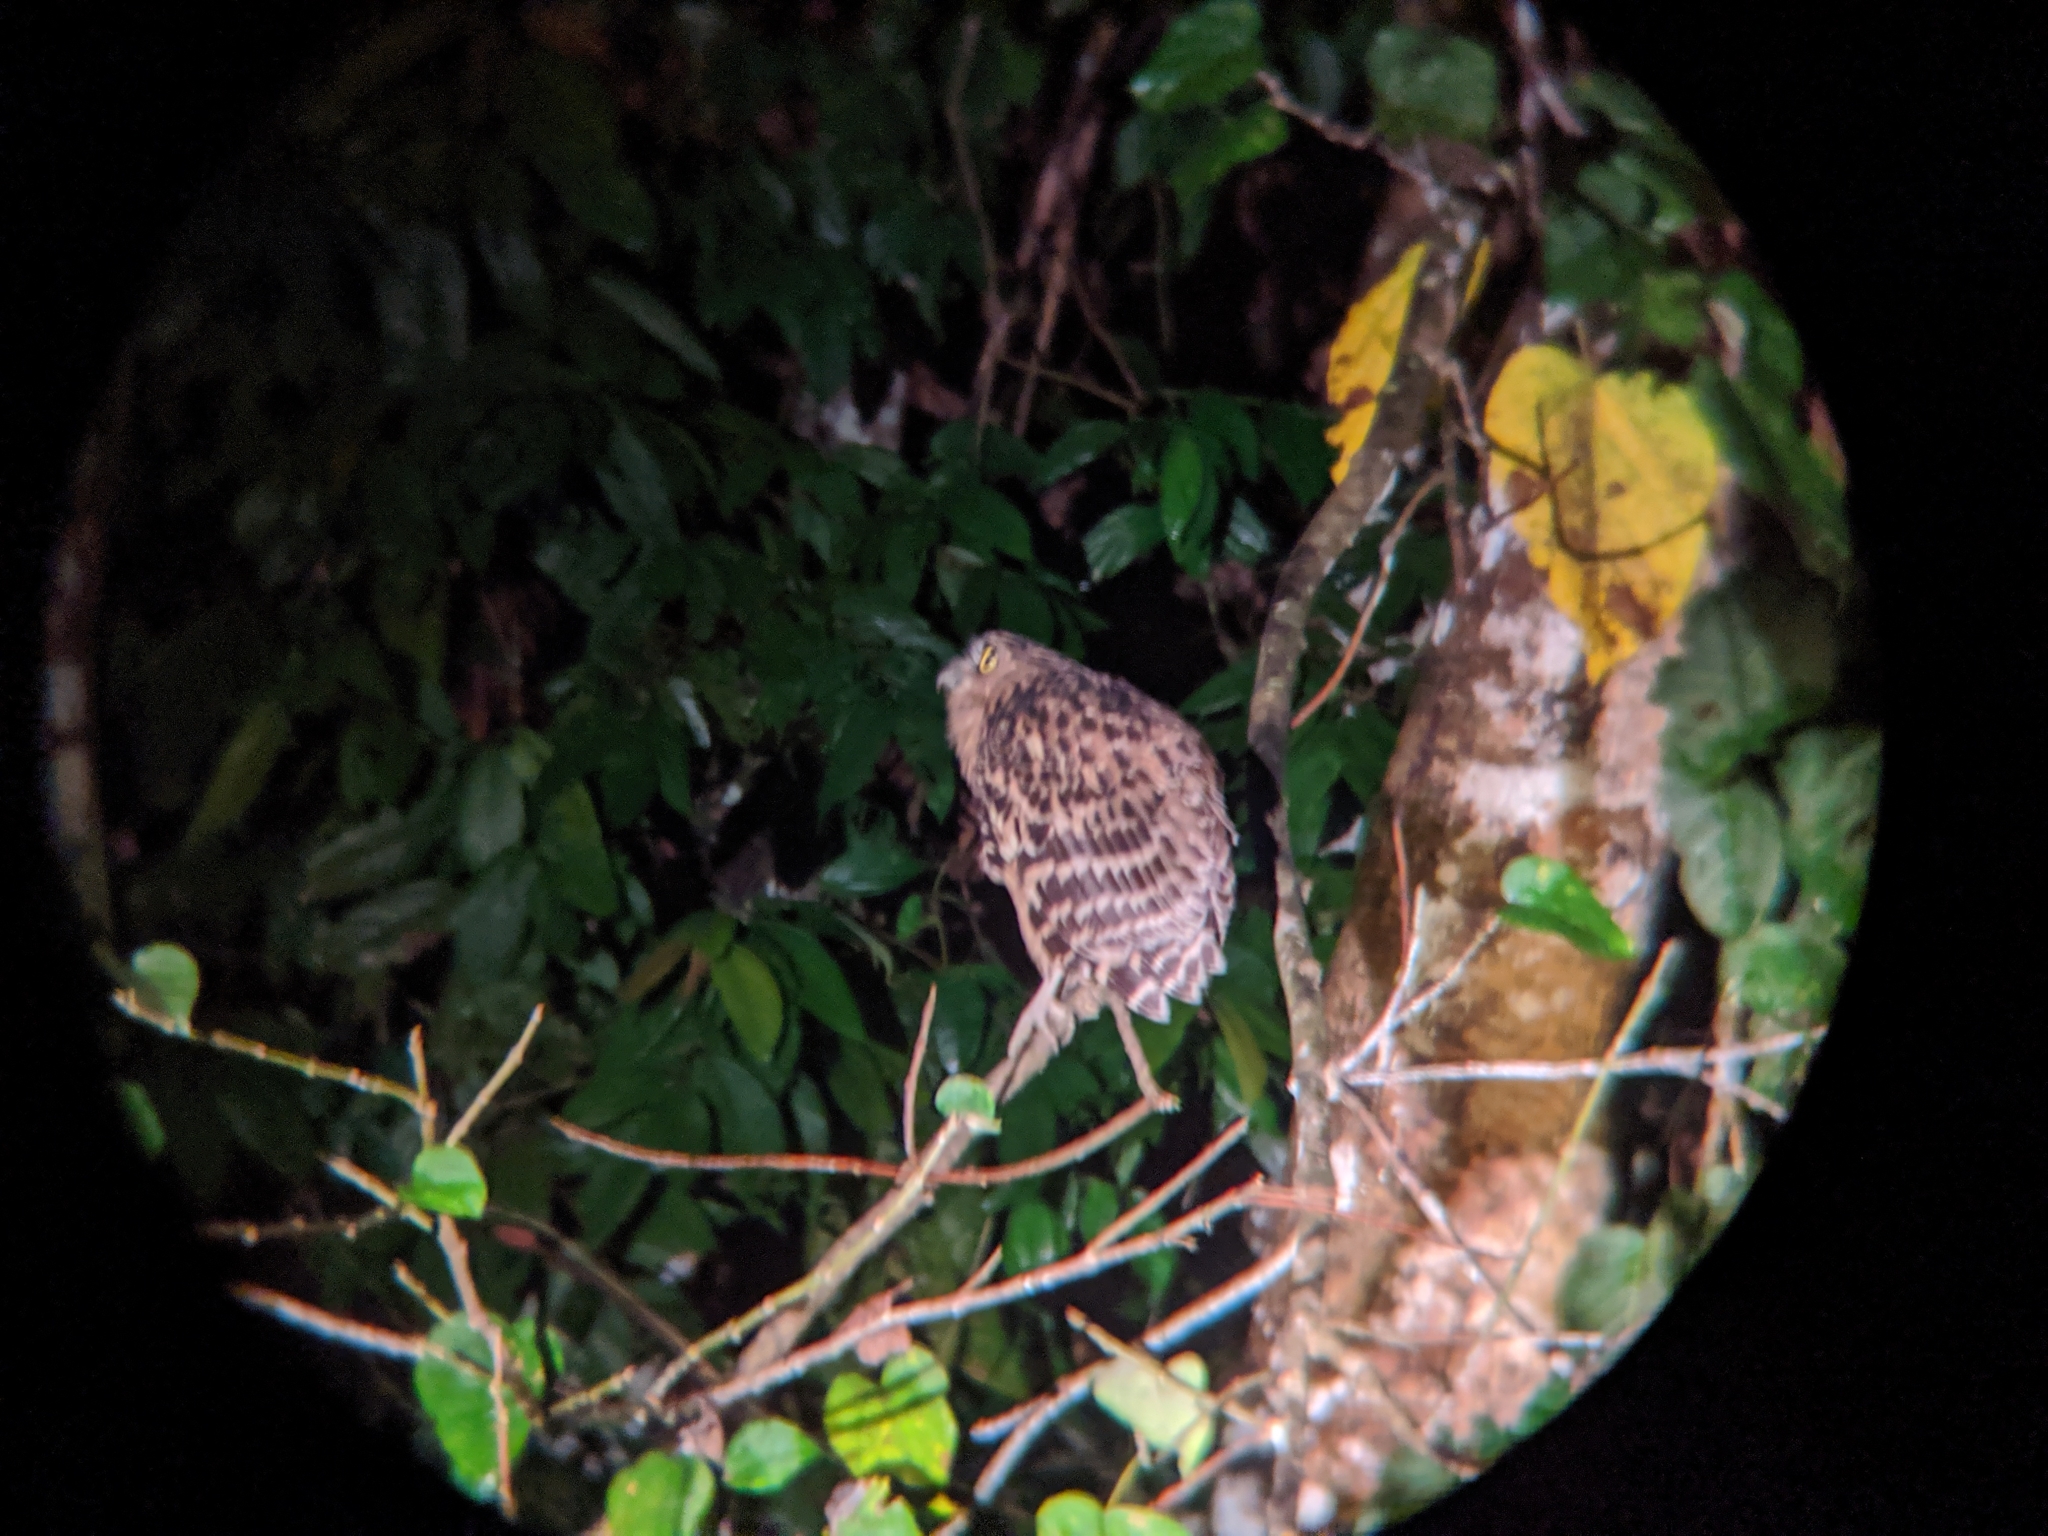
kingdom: Animalia
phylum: Chordata
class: Aves
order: Strigiformes
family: Strigidae
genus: Ketupa
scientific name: Ketupa ketupu
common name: Buffy fish-owl
